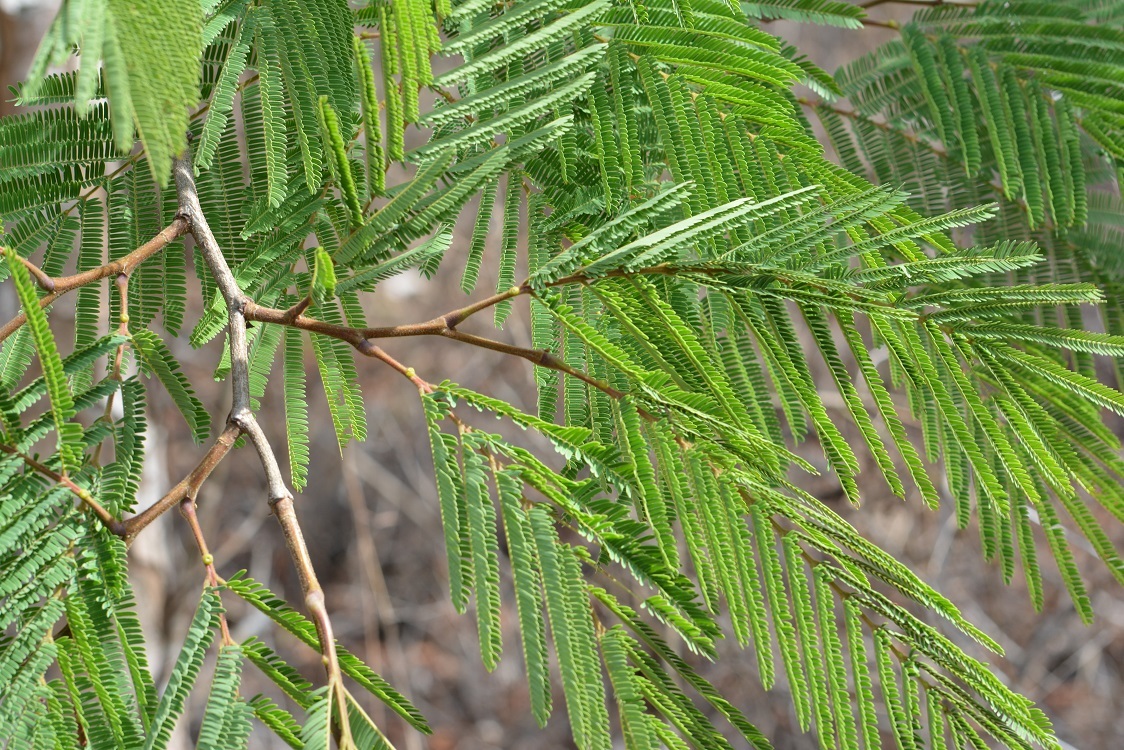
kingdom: Plantae
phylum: Tracheophyta
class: Magnoliopsida
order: Fabales
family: Fabaceae
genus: Lysiloma
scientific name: Lysiloma acapulcense
